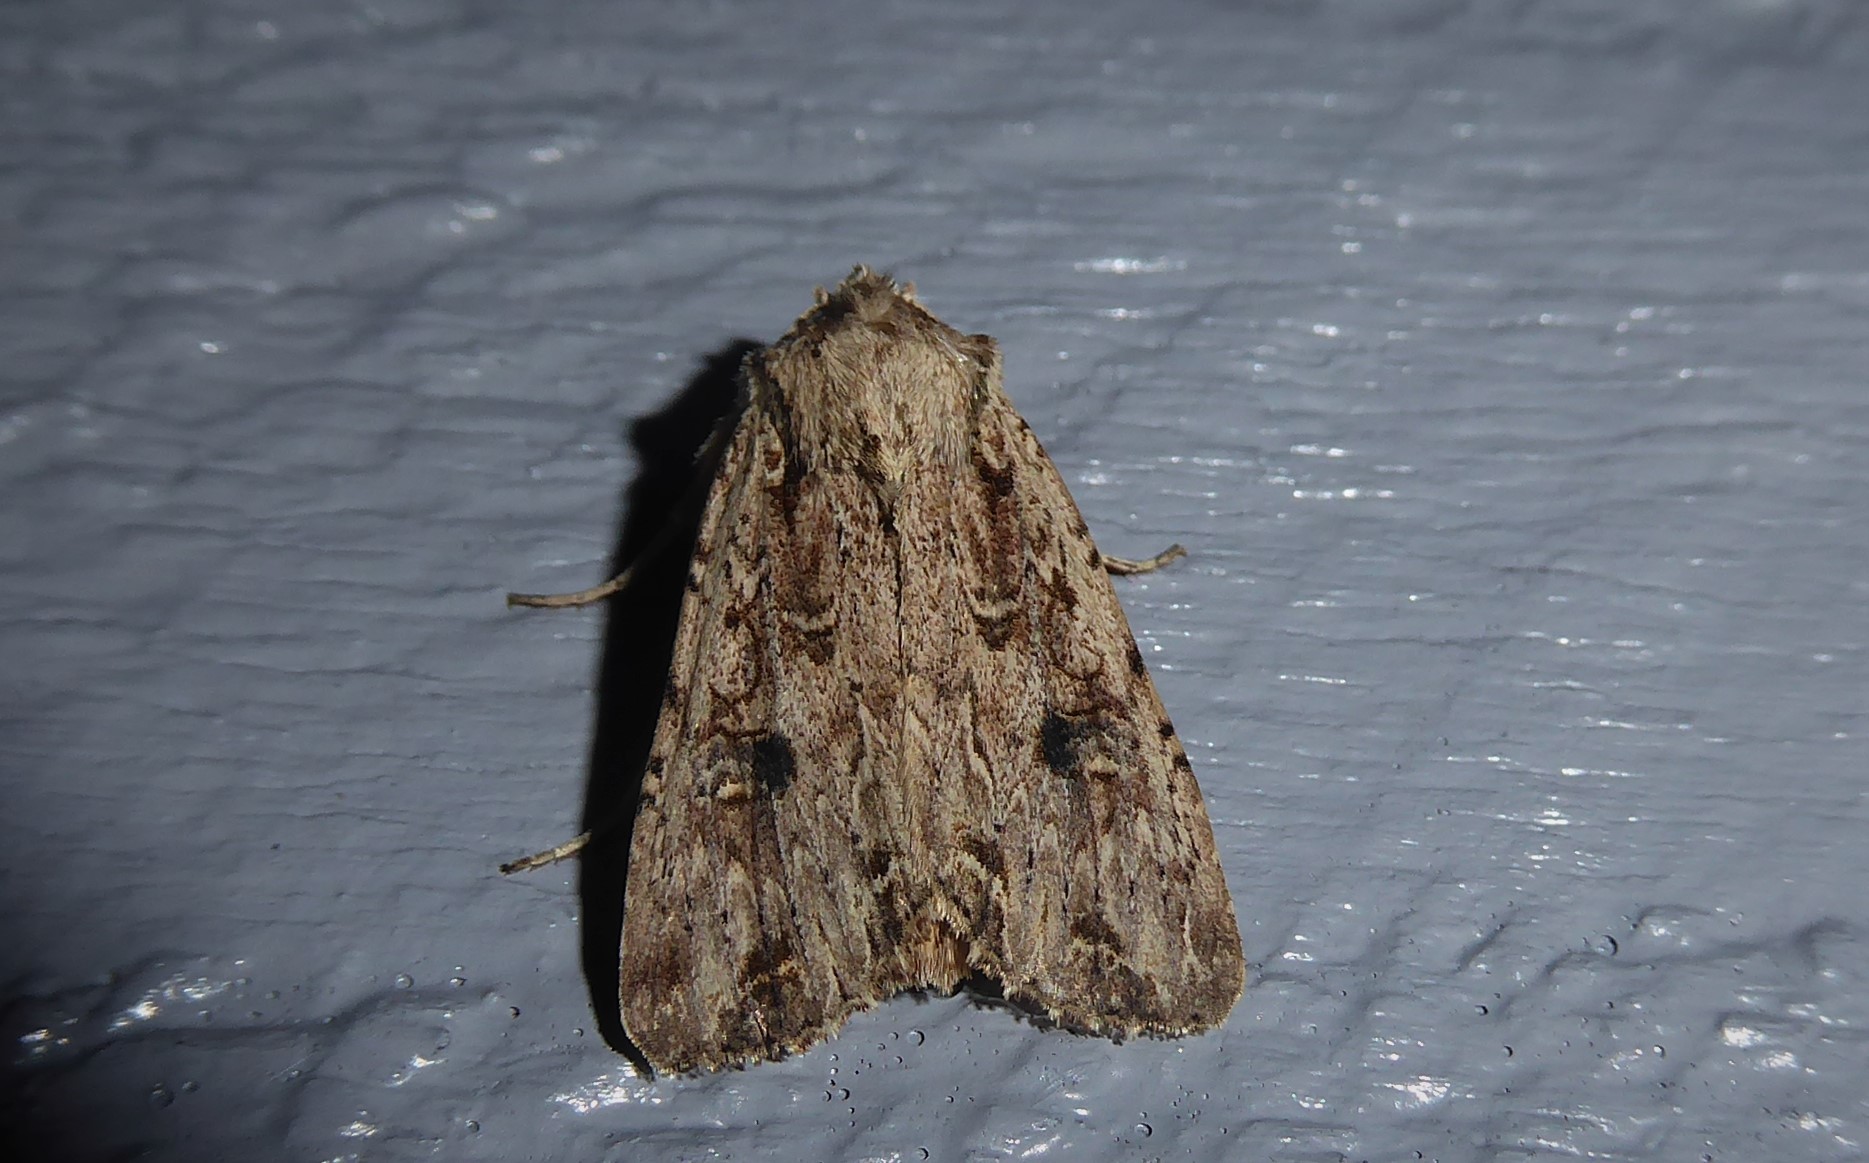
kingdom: Animalia
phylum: Arthropoda
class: Insecta
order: Lepidoptera
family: Noctuidae
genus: Ichneutica
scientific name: Ichneutica lignana
